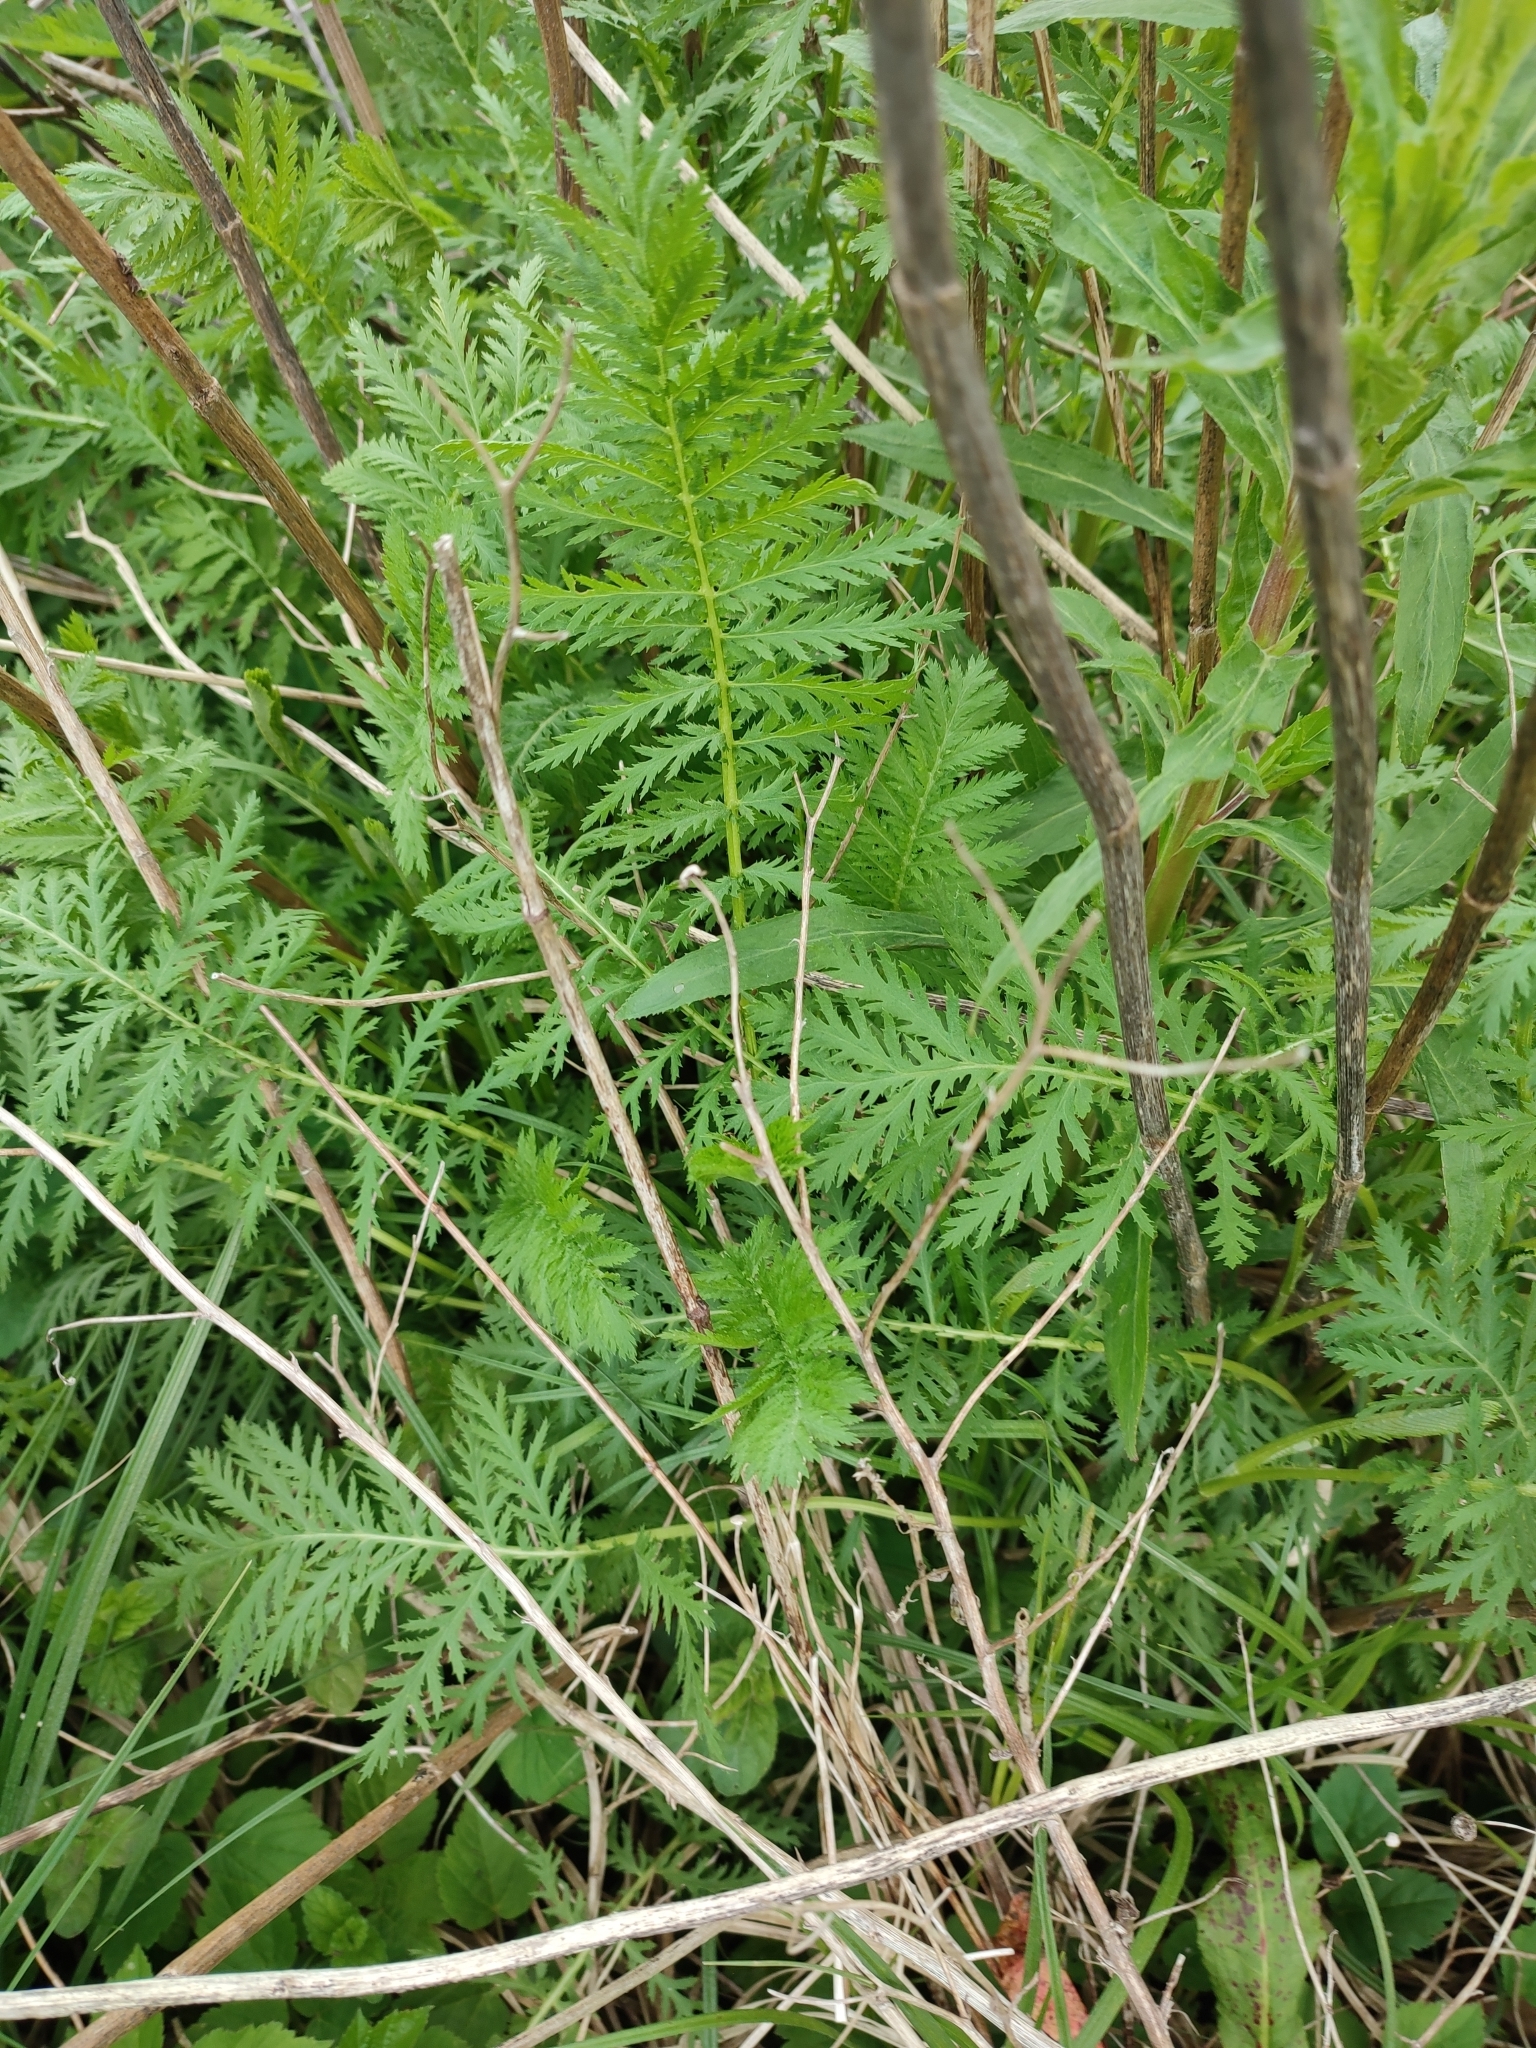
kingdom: Plantae
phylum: Tracheophyta
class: Magnoliopsida
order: Asterales
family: Asteraceae
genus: Tanacetum
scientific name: Tanacetum vulgare
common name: Common tansy
